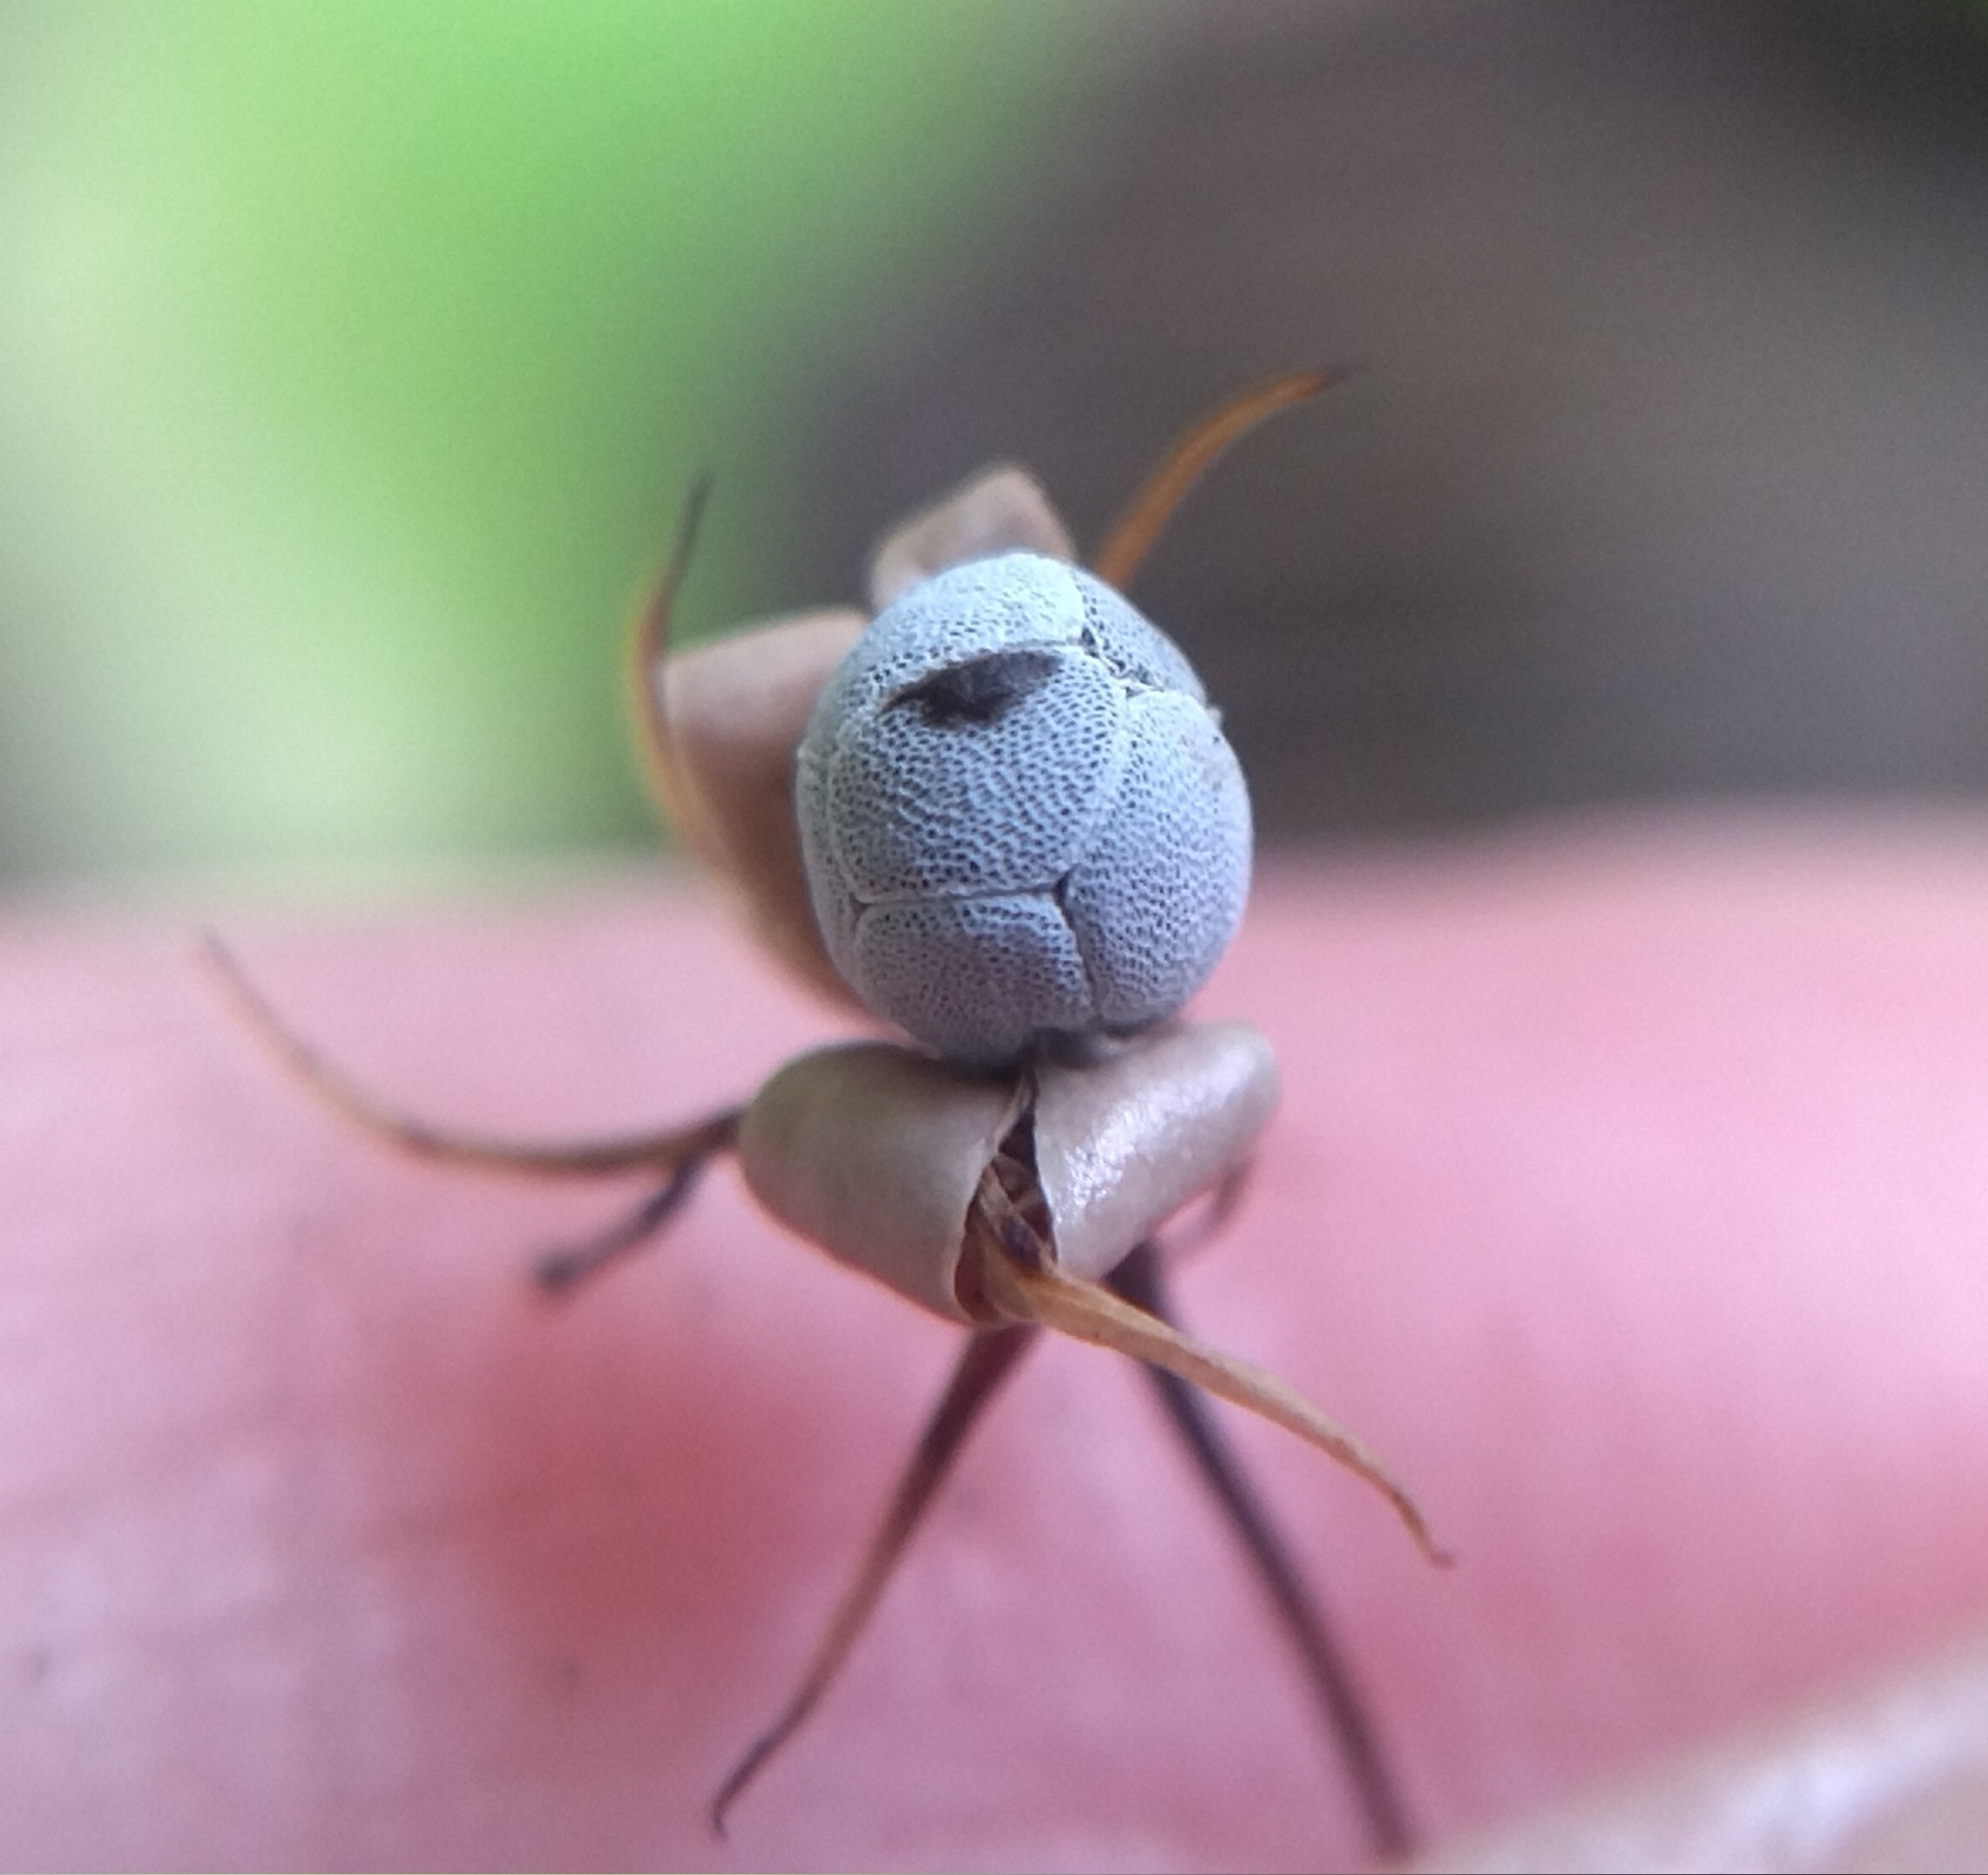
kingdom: Plantae
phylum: Tracheophyta
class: Magnoliopsida
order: Ericales
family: Primulaceae
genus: Lysimachia
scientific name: Lysimachia europaea
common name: Arctic starflower
